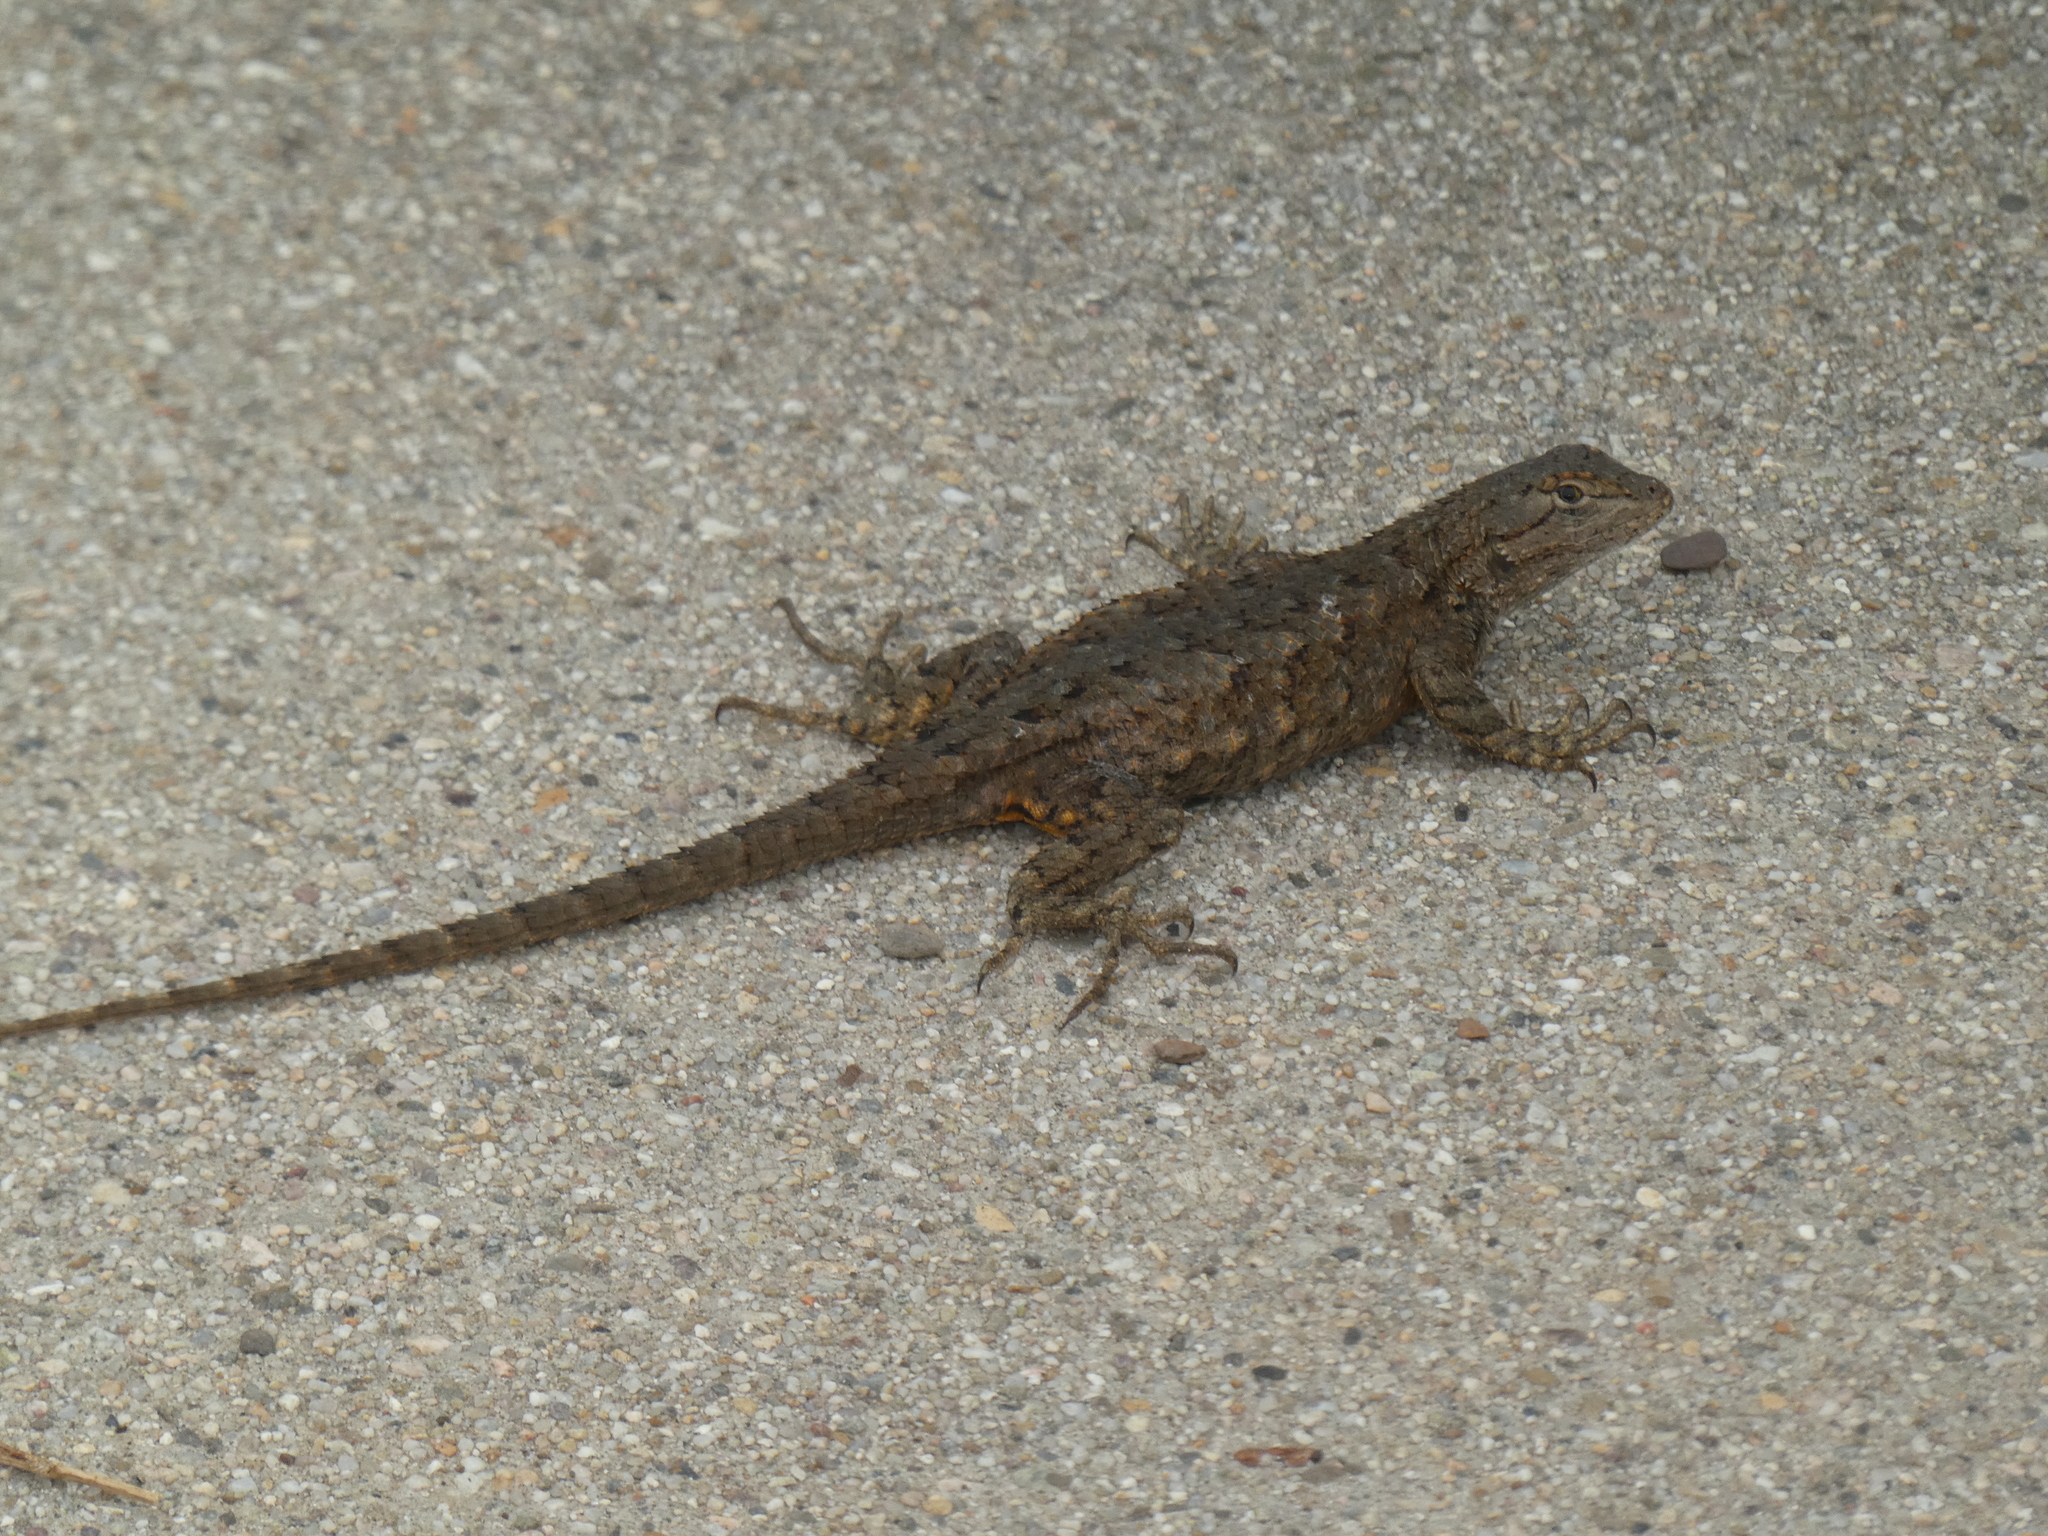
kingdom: Animalia
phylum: Chordata
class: Squamata
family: Phrynosomatidae
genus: Sceloporus
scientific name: Sceloporus occidentalis
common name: Western fence lizard
